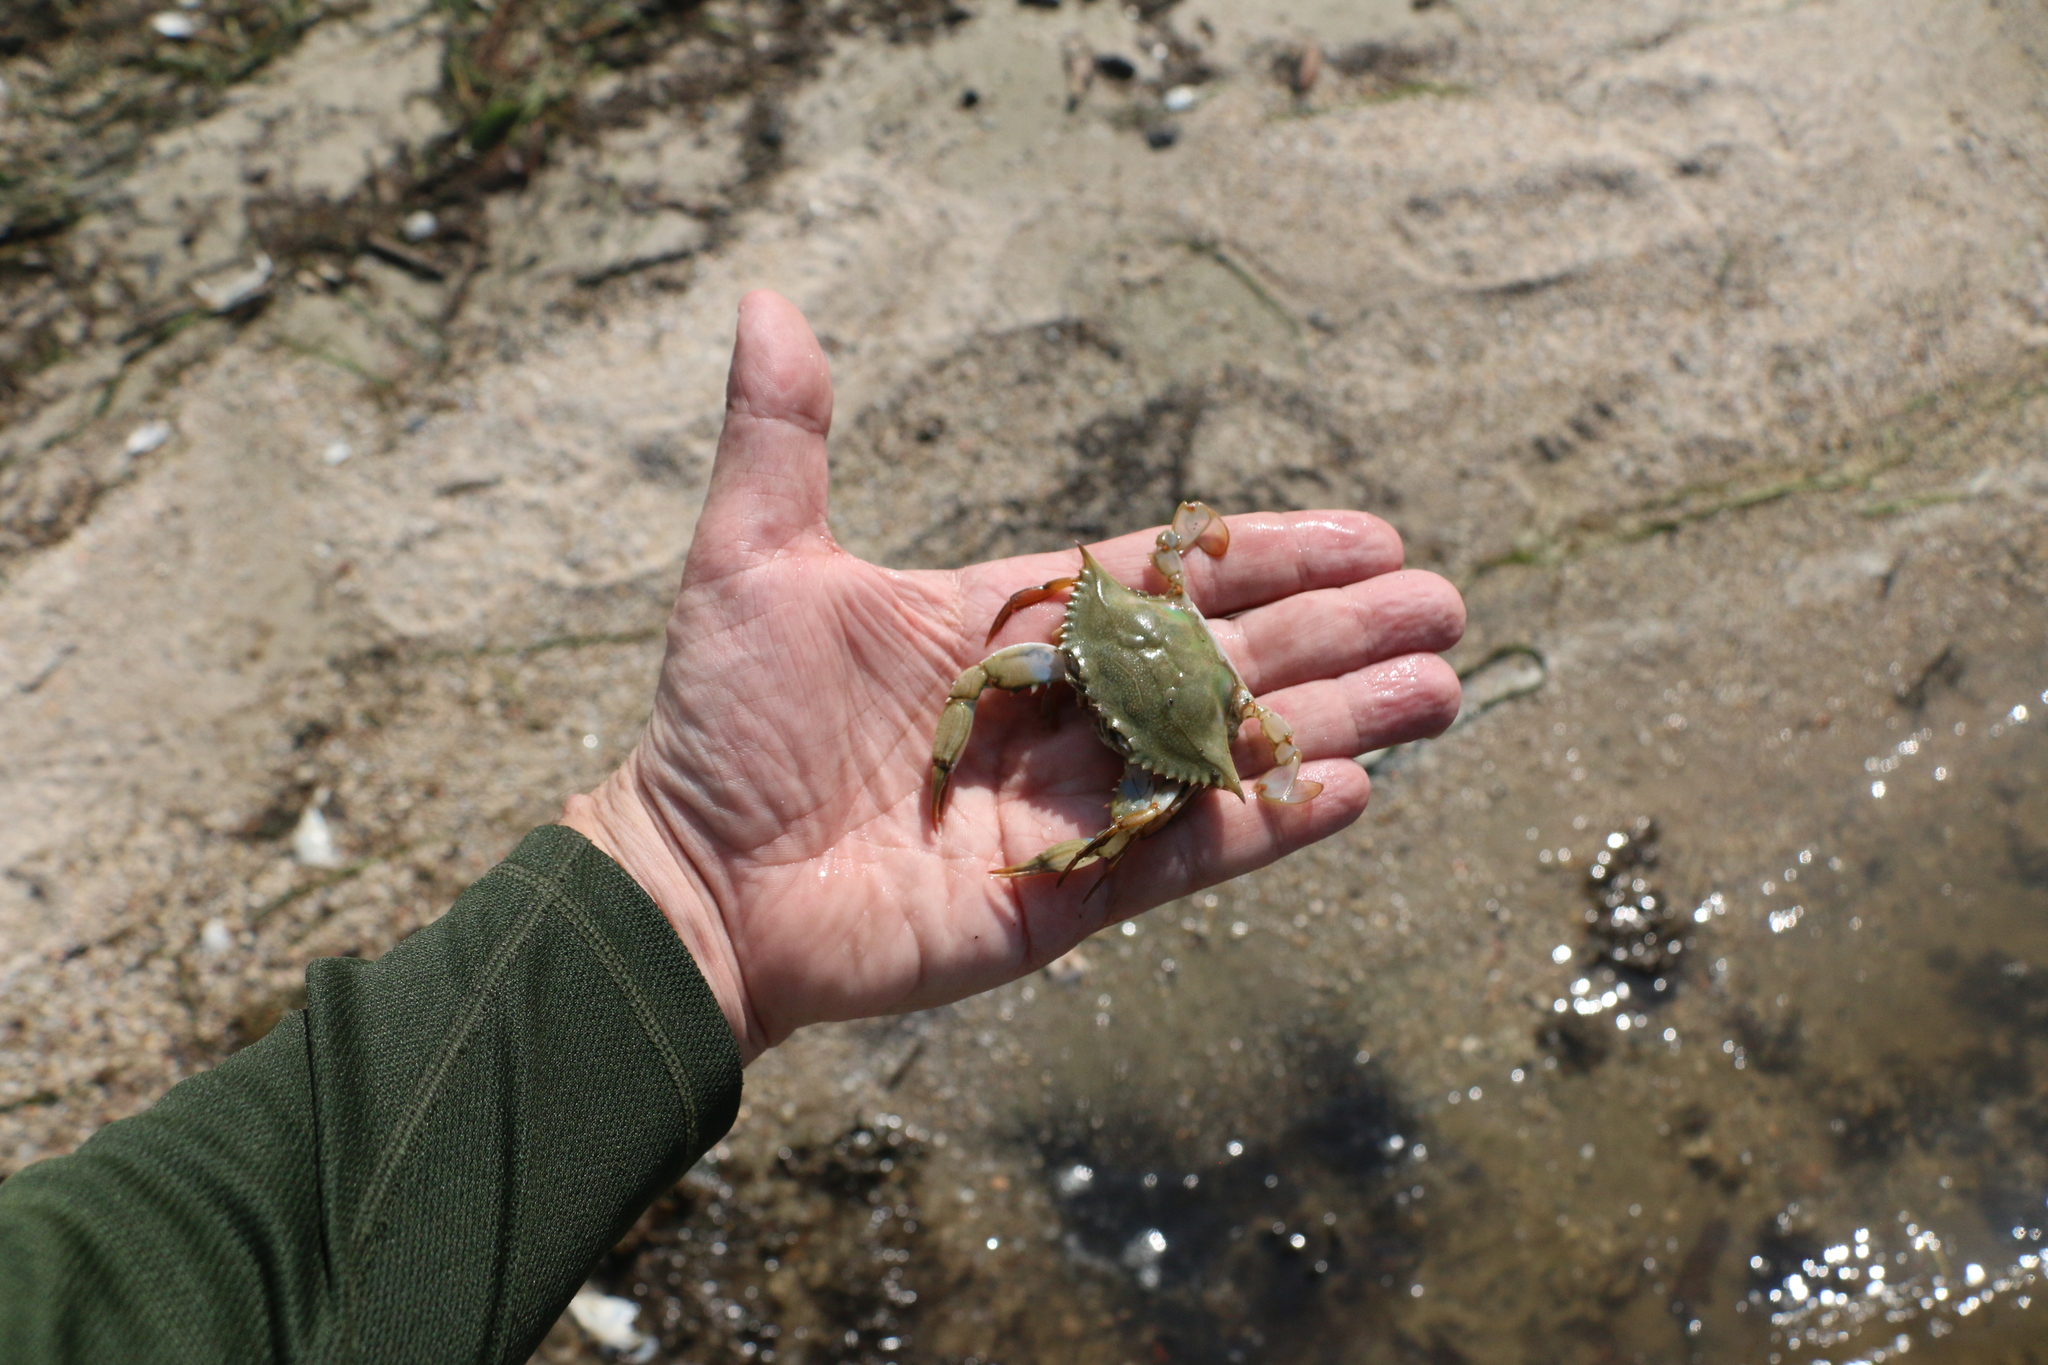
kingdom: Animalia
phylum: Arthropoda
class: Malacostraca
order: Decapoda
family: Portunidae
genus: Callinectes
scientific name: Callinectes sapidus
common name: Blue crab
